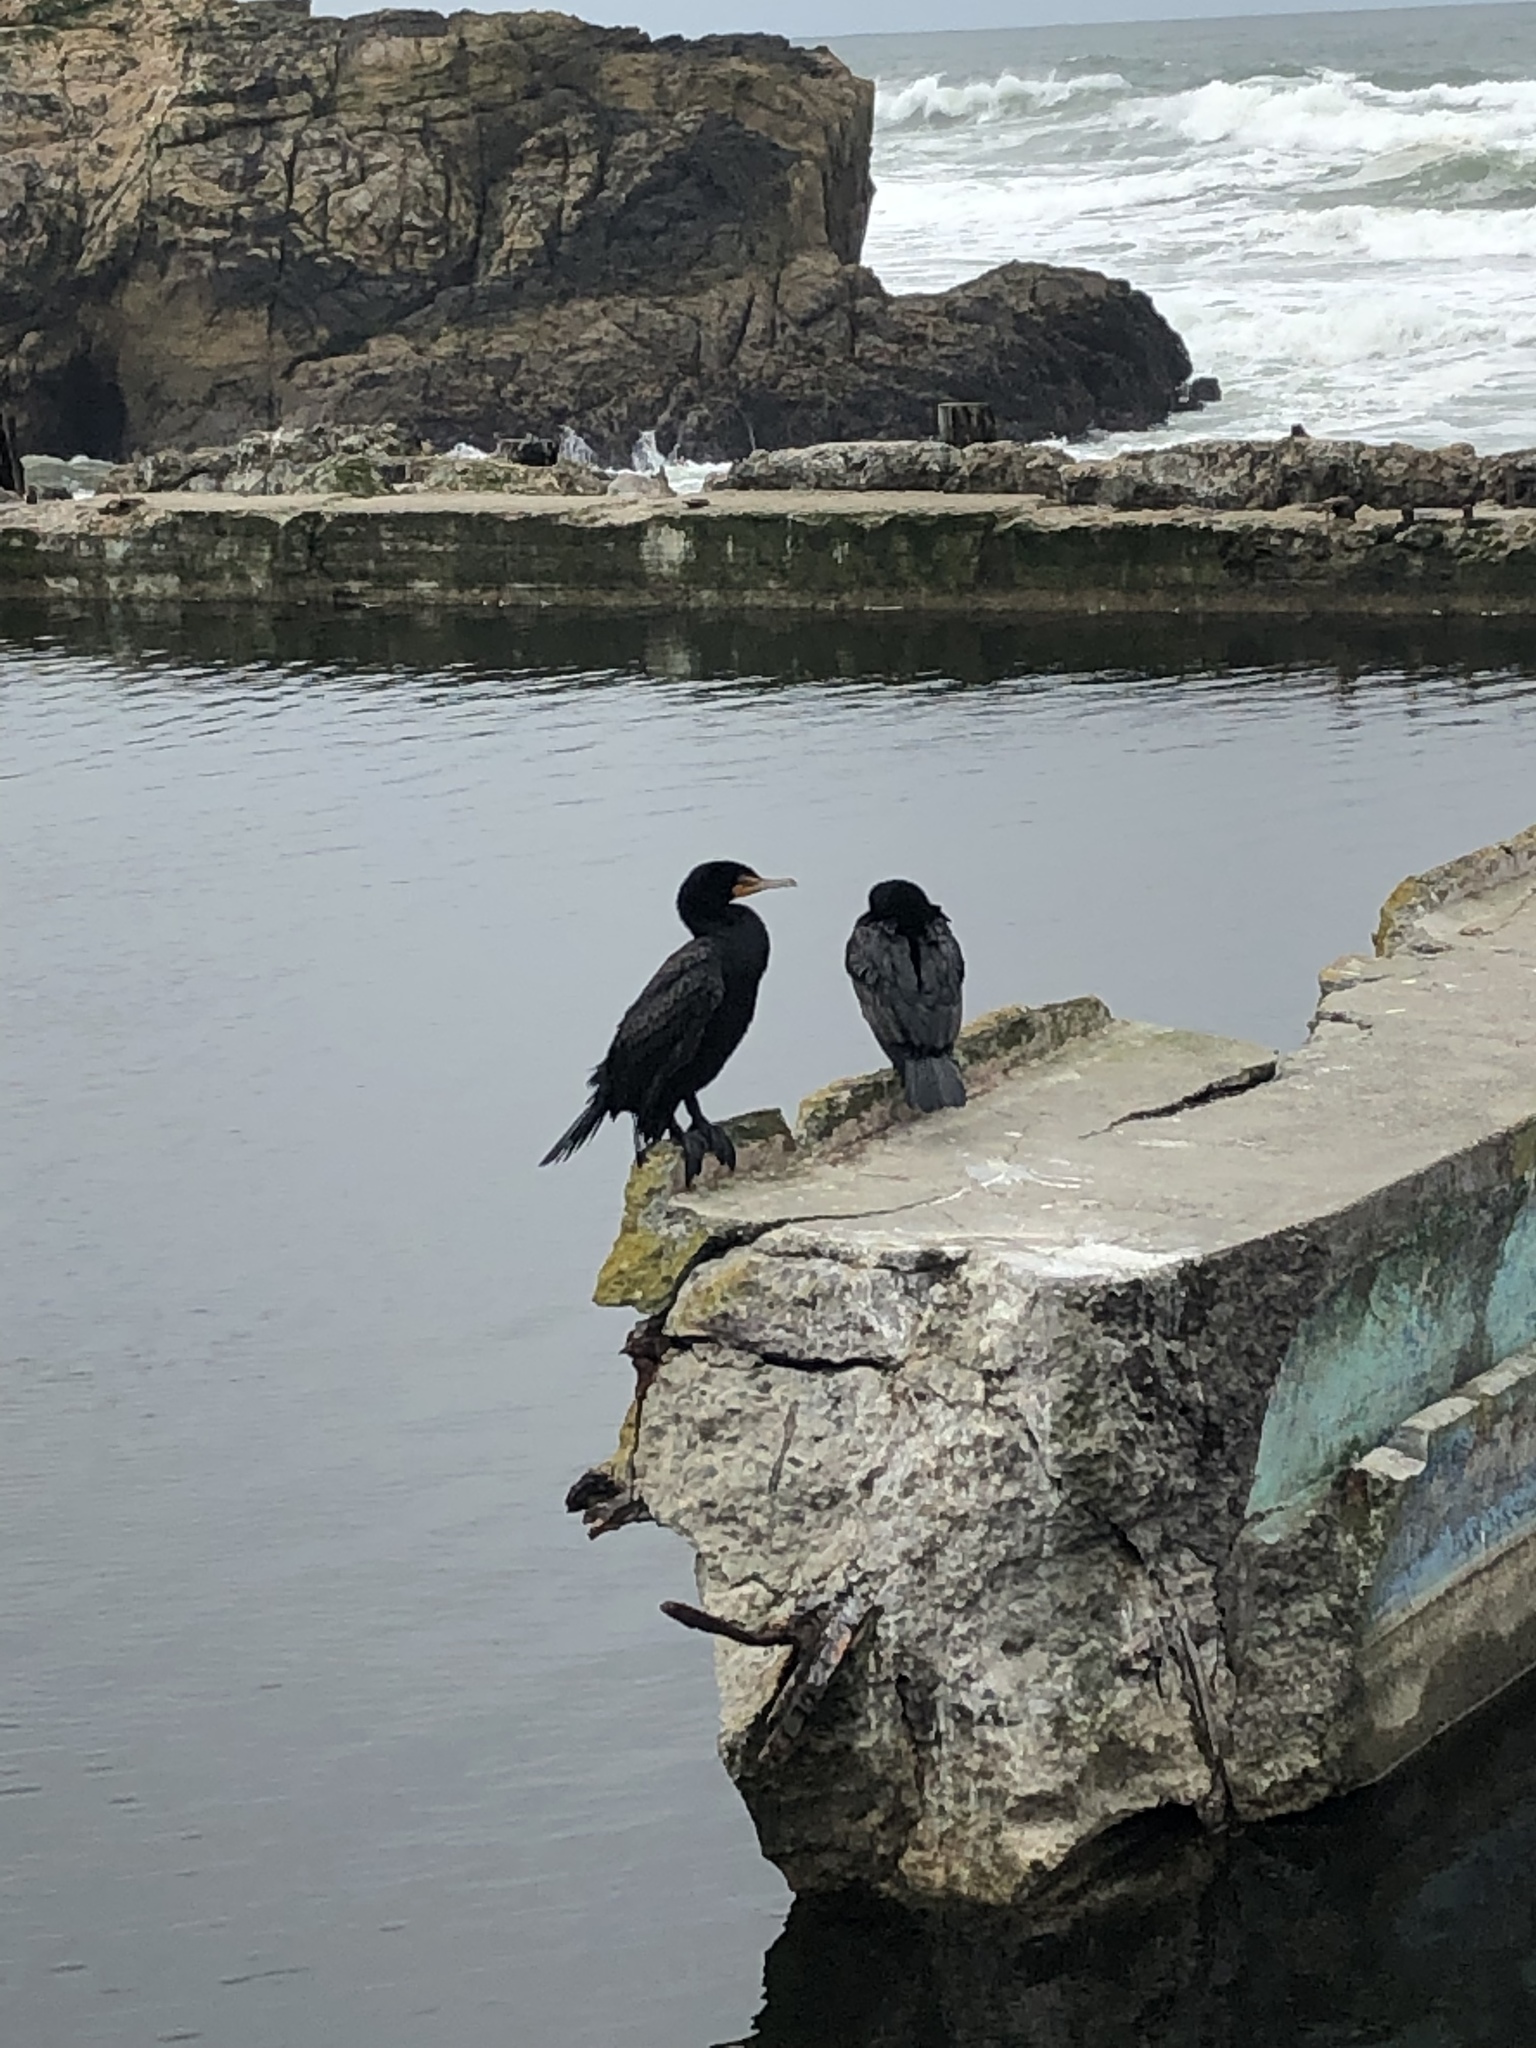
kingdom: Animalia
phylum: Chordata
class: Aves
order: Suliformes
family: Phalacrocoracidae
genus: Phalacrocorax
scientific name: Phalacrocorax auritus
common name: Double-crested cormorant
